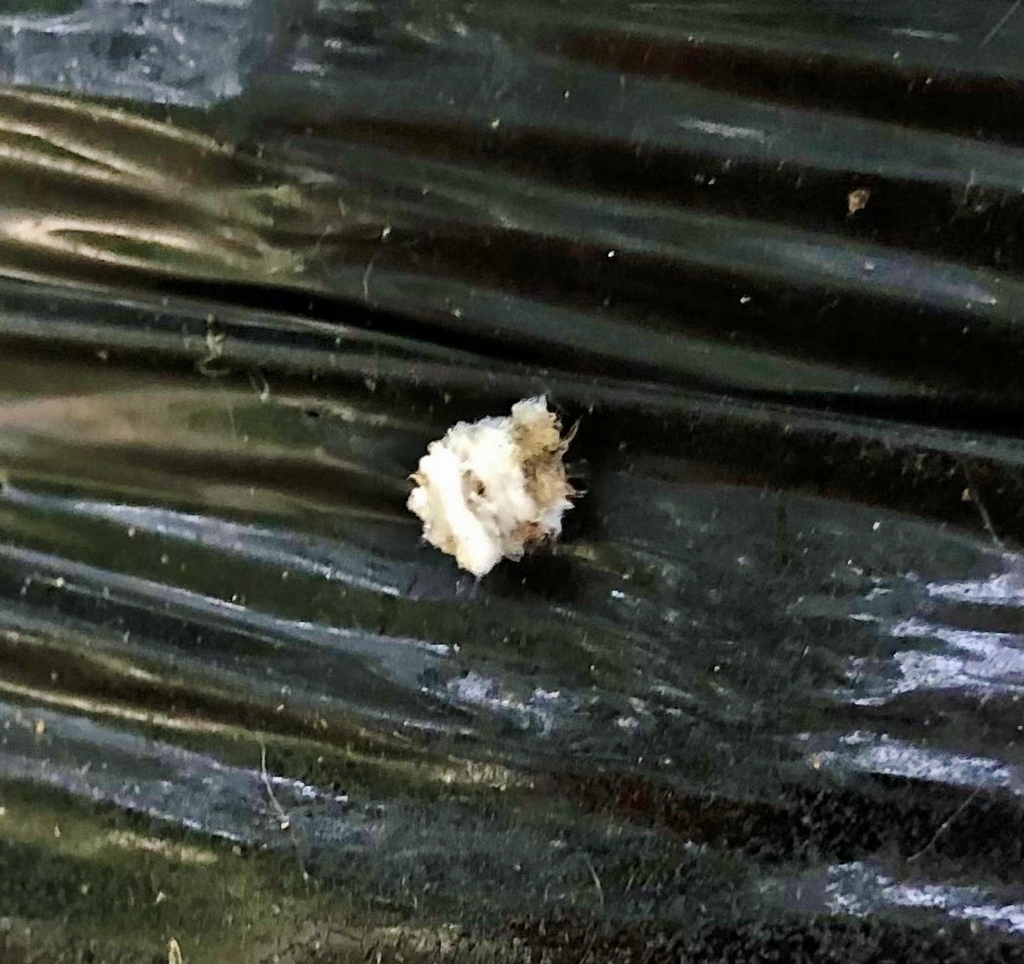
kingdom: Animalia
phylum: Arthropoda
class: Insecta
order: Neuroptera
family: Chrysopidae
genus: Ceraeochrysa
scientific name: Ceraeochrysa lineaticornis
